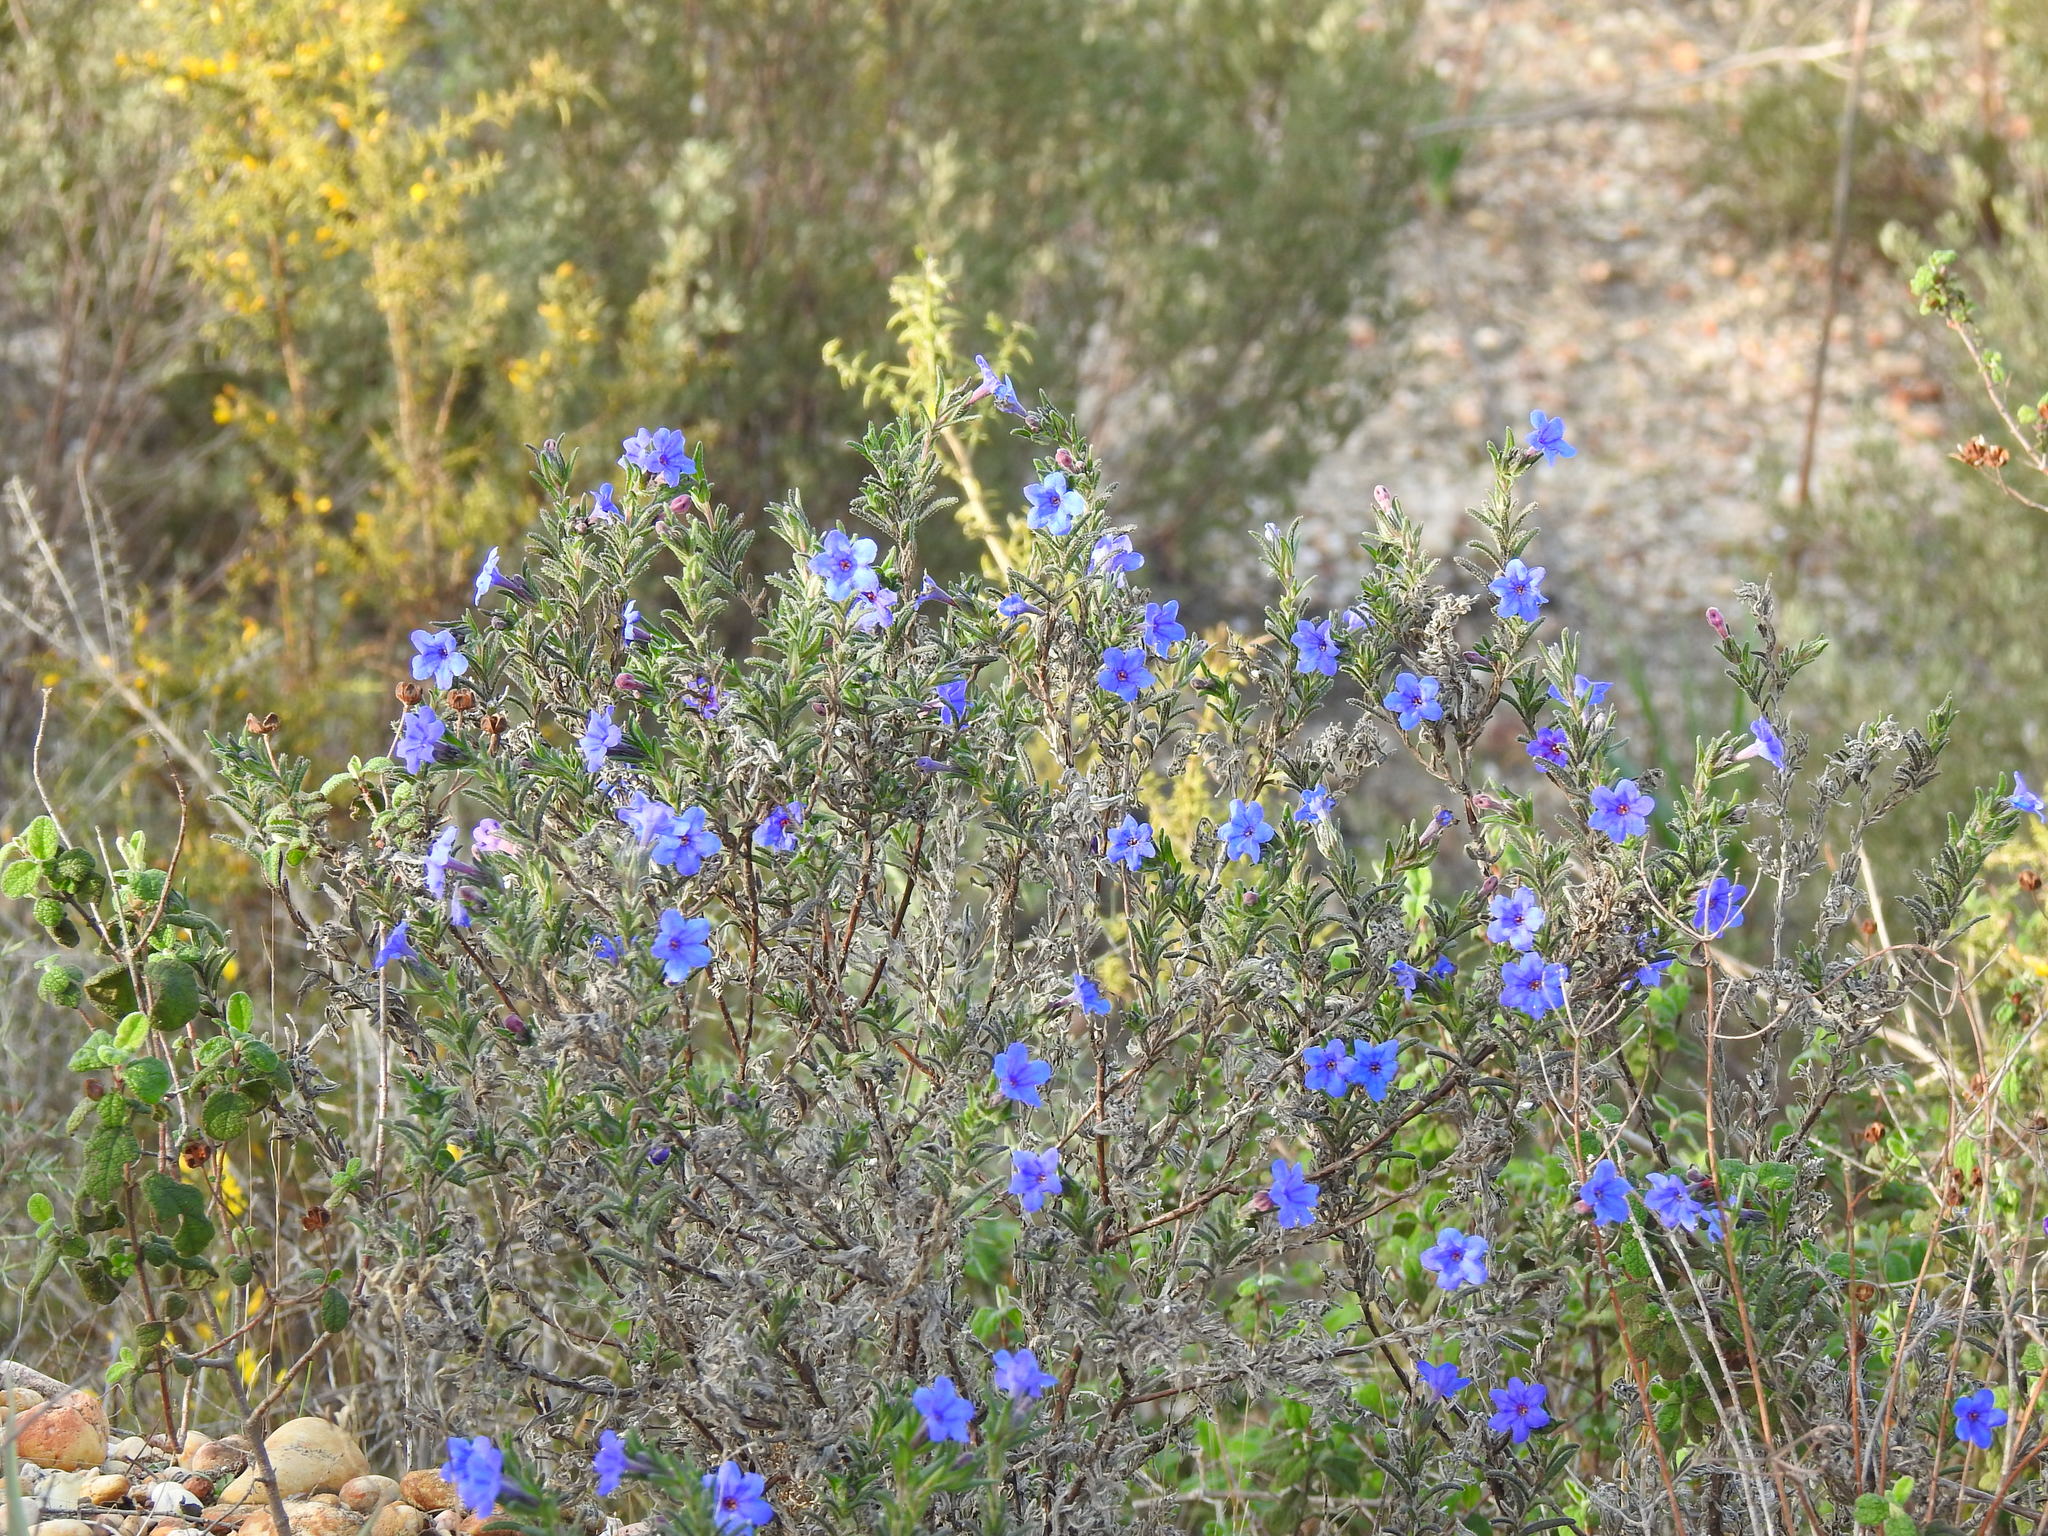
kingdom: Plantae
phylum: Tracheophyta
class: Magnoliopsida
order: Boraginales
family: Boraginaceae
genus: Glandora
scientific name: Glandora prostrata
